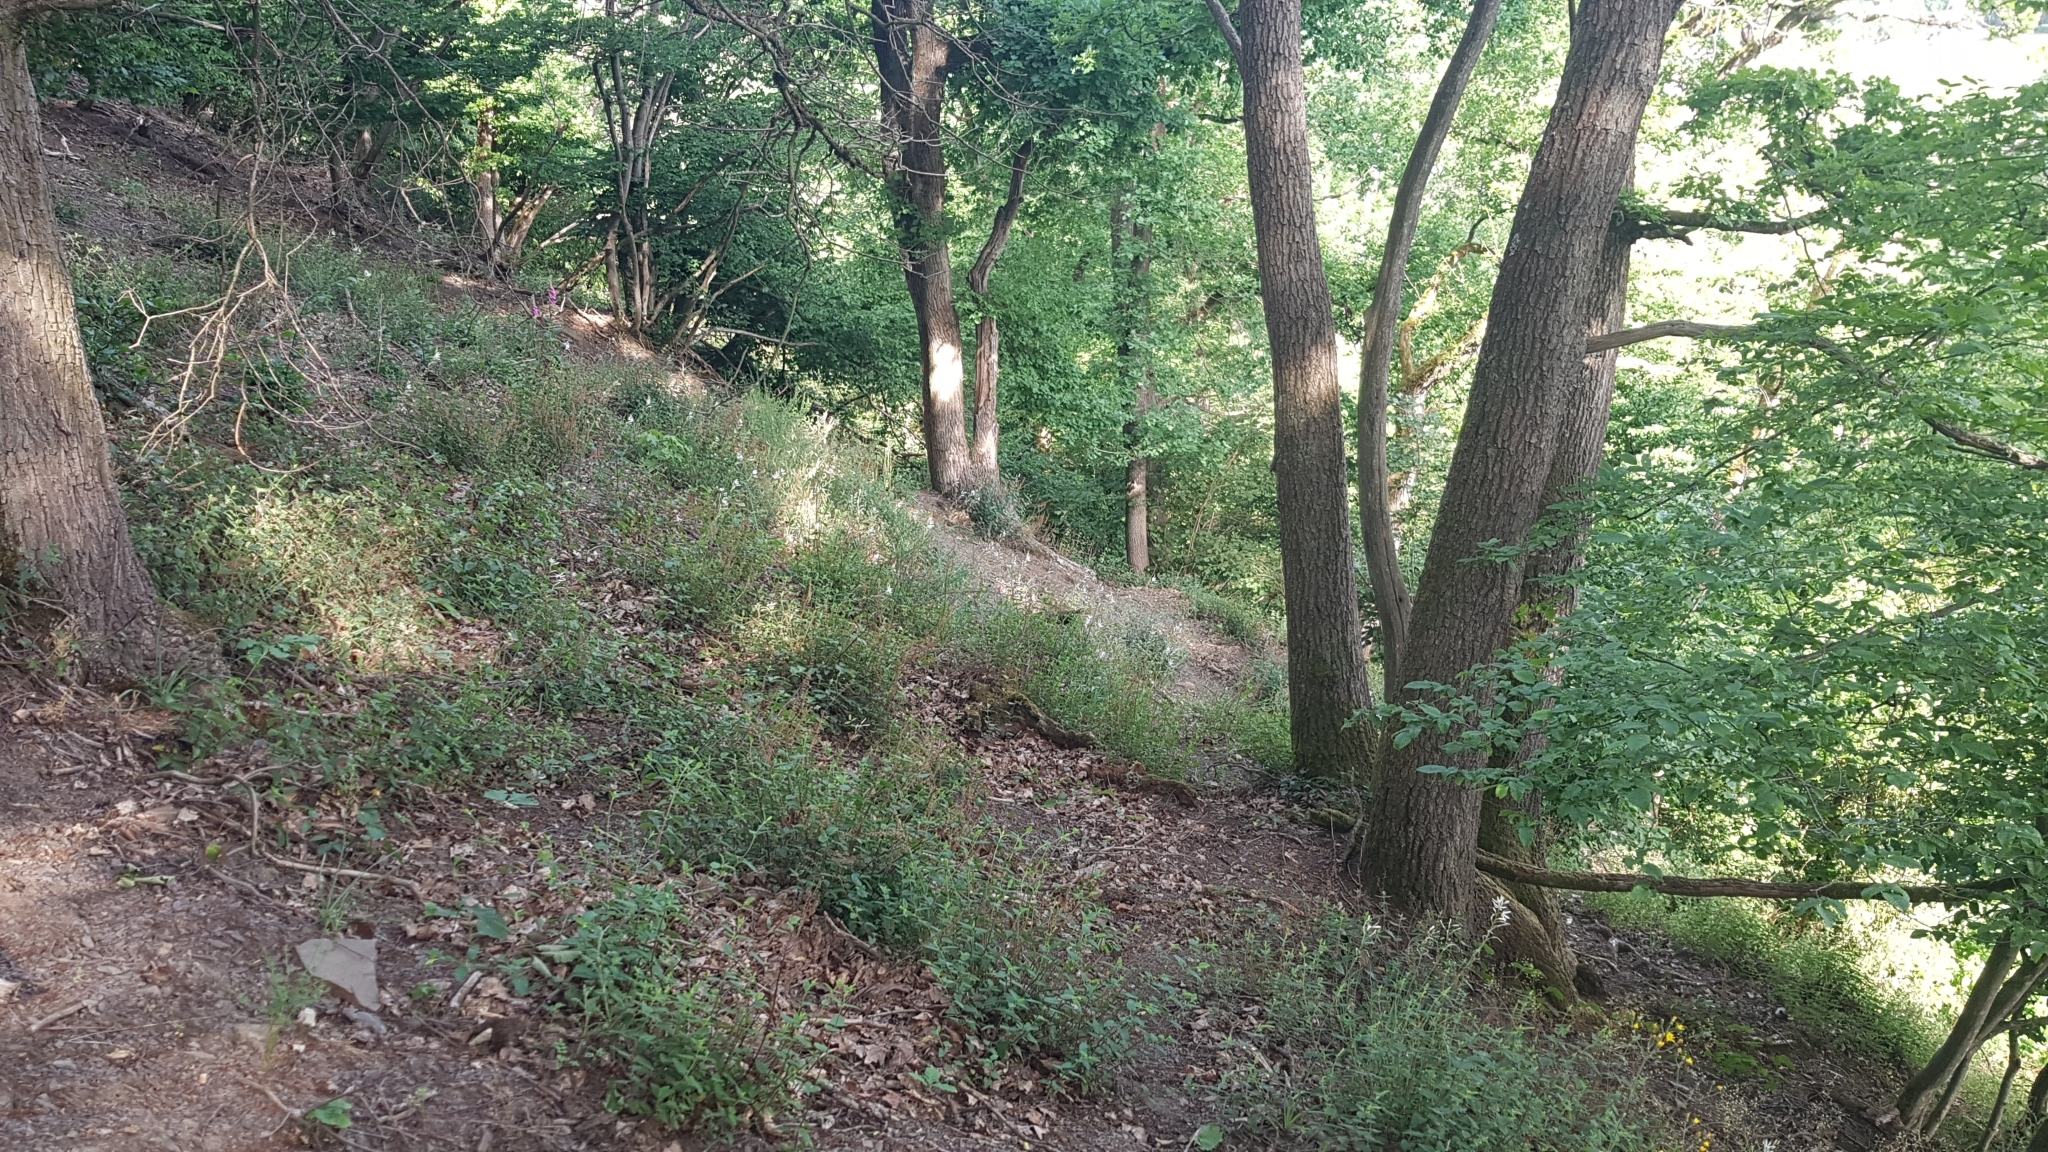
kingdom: Plantae
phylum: Tracheophyta
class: Liliopsida
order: Asparagales
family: Asparagaceae
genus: Anthericum
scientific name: Anthericum liliago
